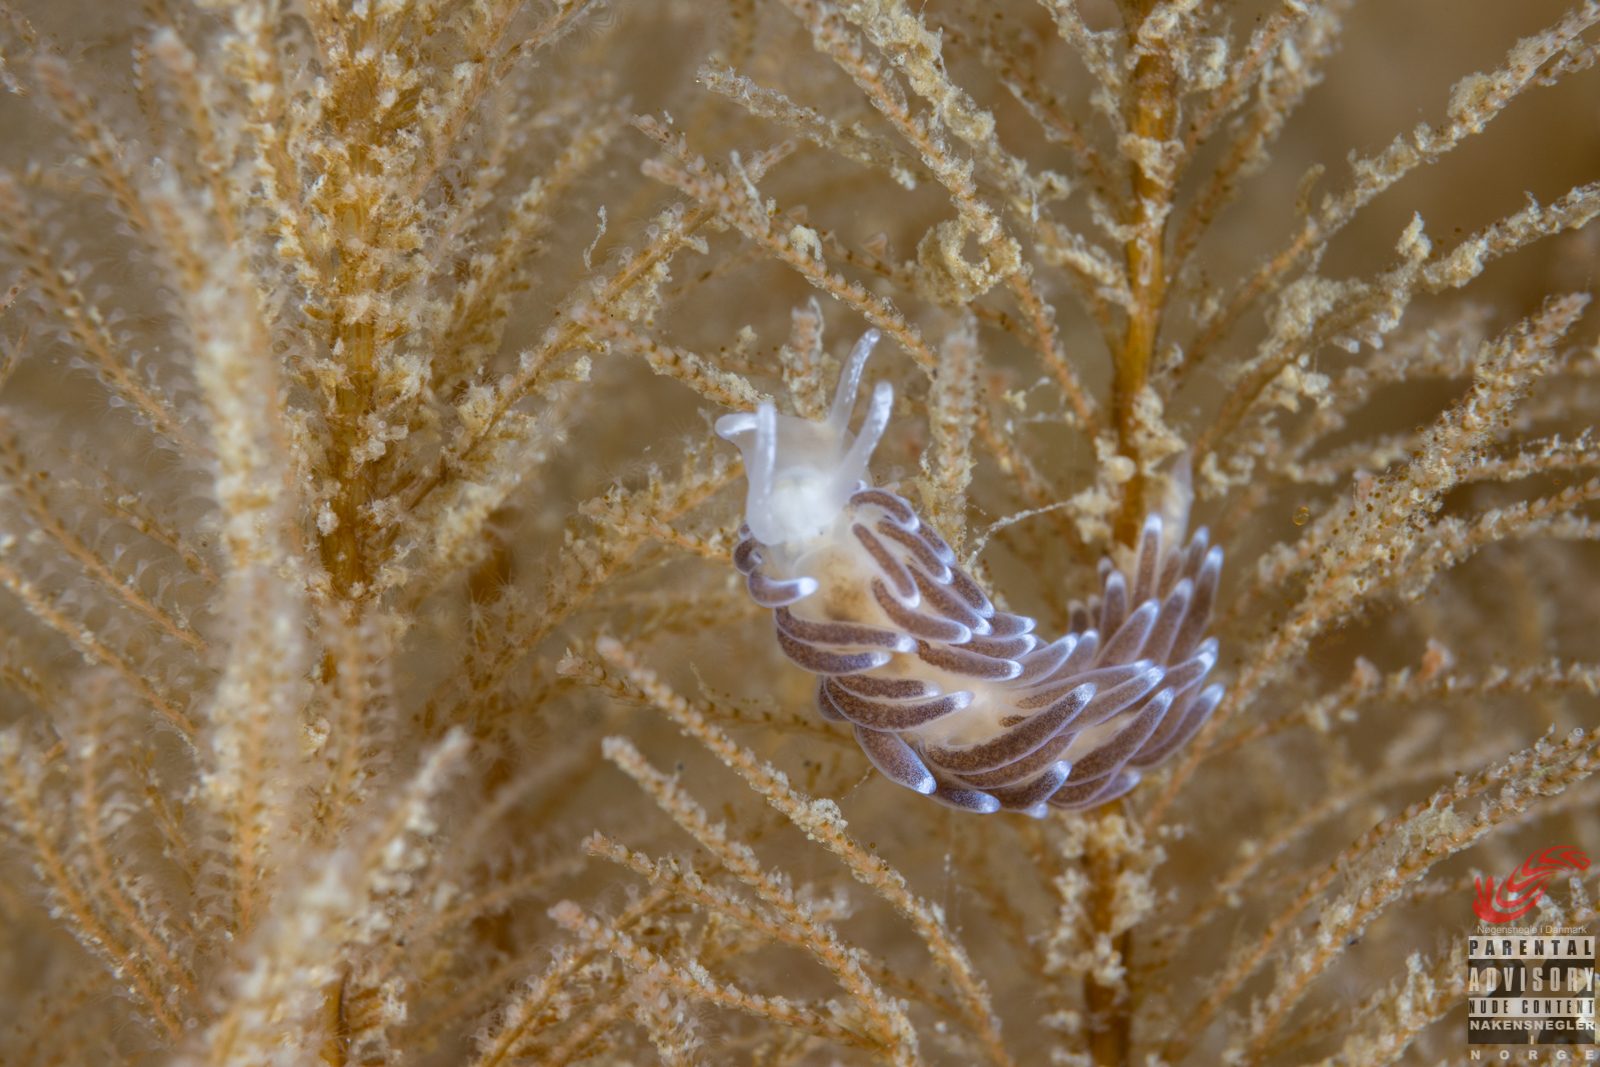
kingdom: Animalia
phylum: Mollusca
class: Gastropoda
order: Nudibranchia
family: Cuthonellidae
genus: Cuthonella
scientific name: Cuthonella concinna
